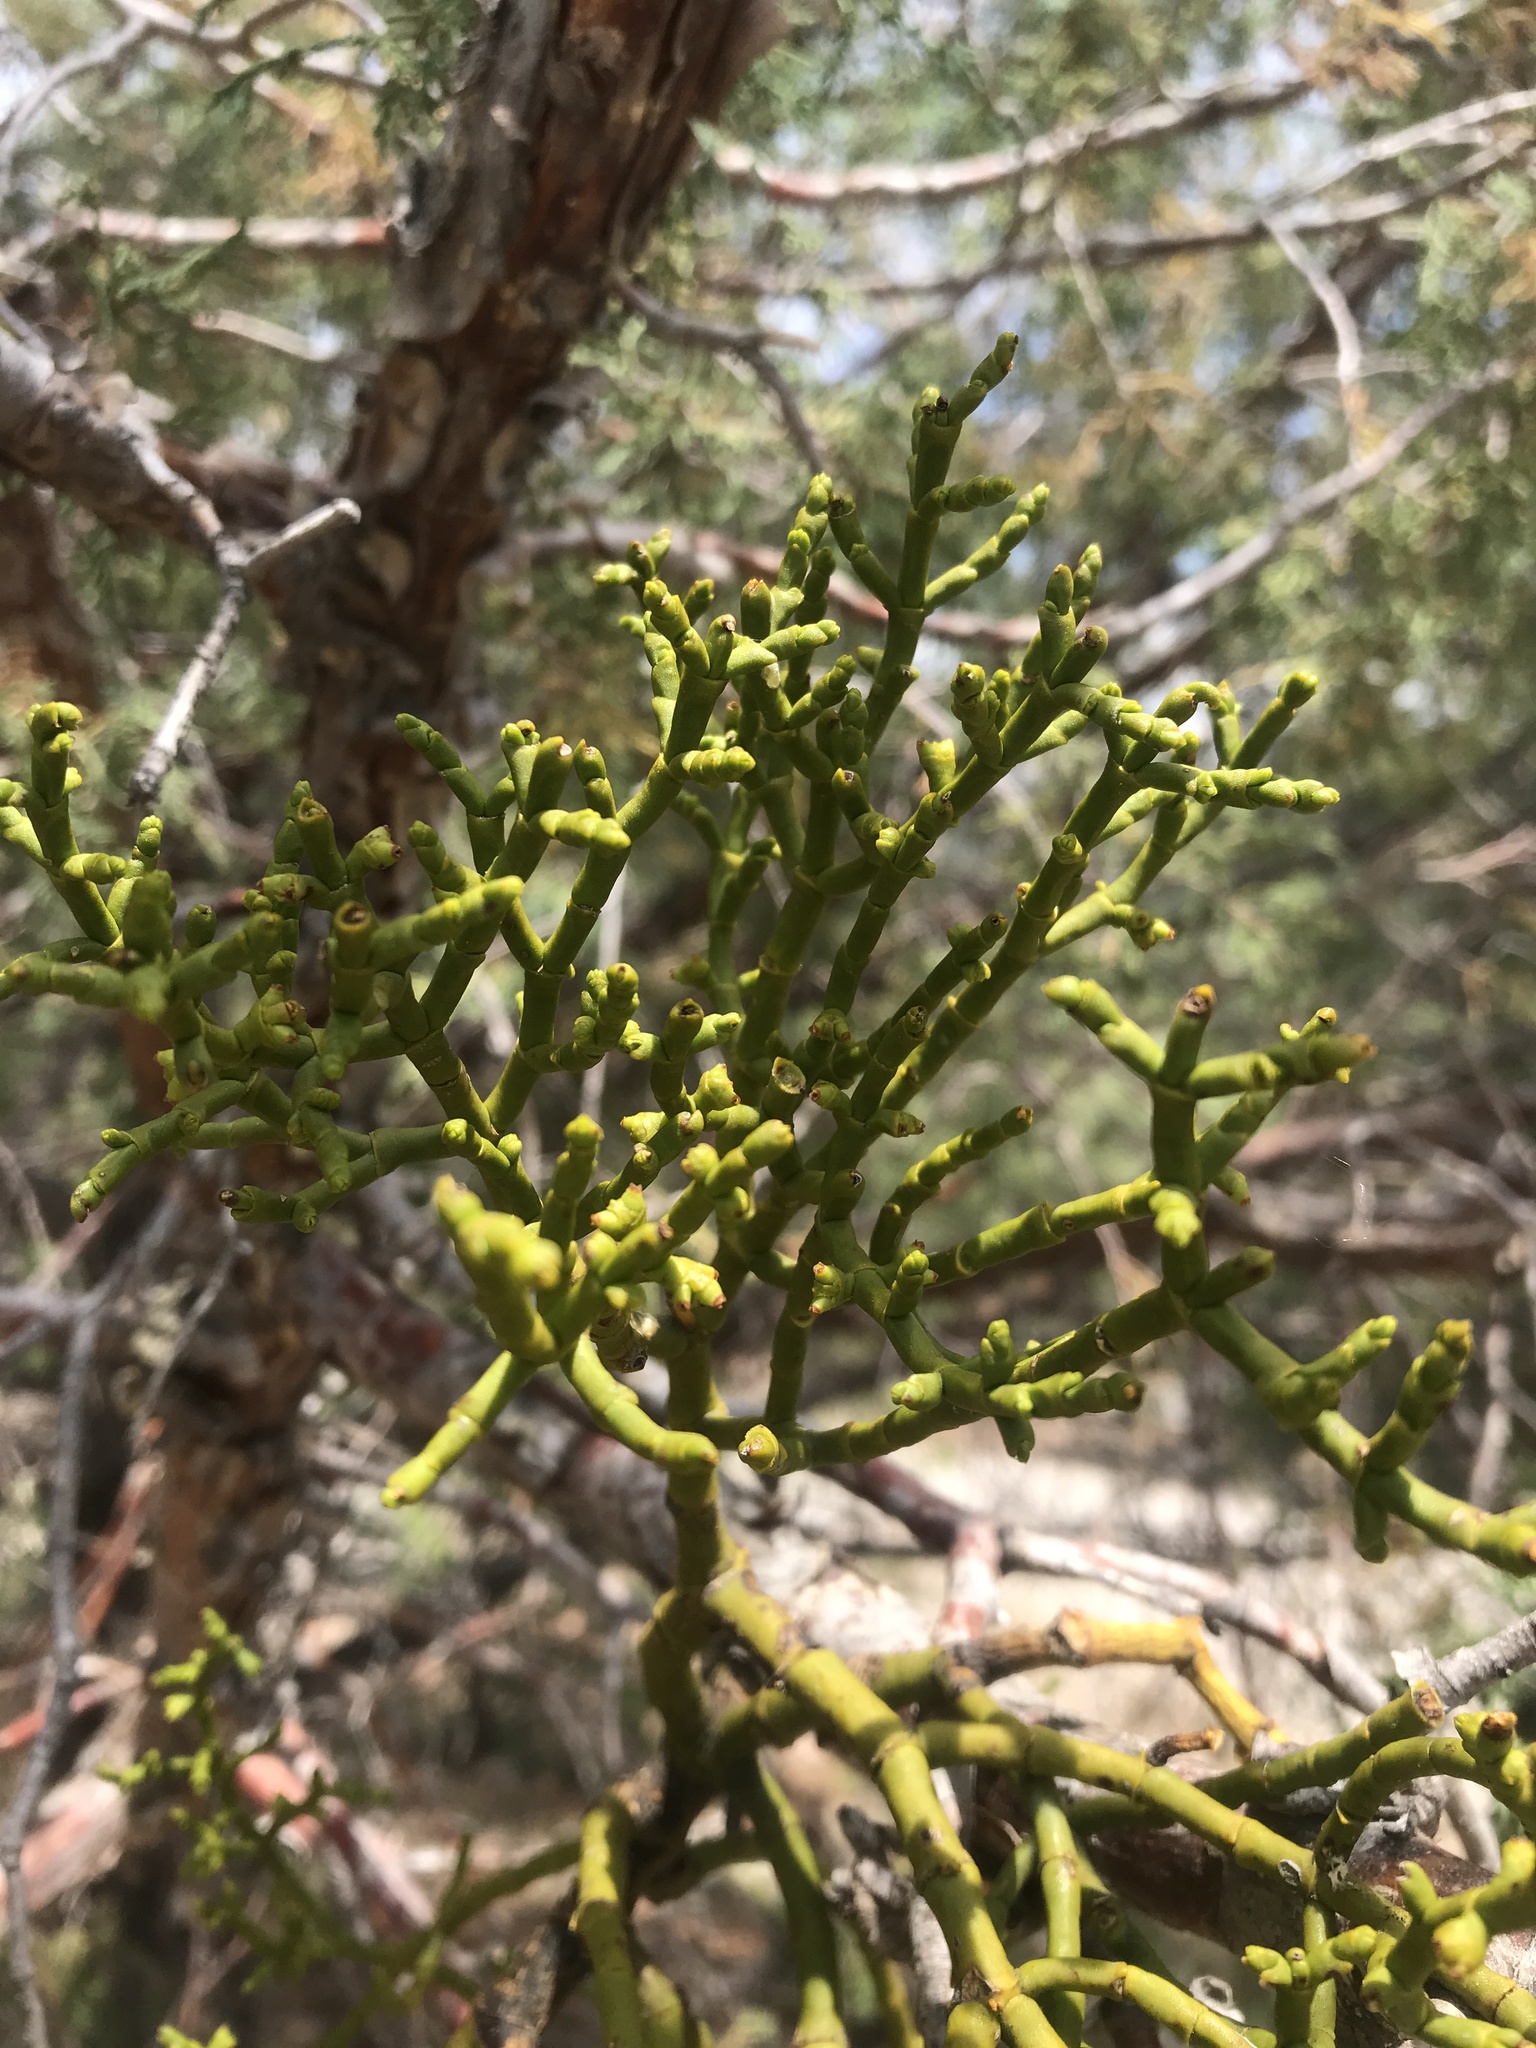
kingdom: Plantae
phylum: Tracheophyta
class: Magnoliopsida
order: Santalales
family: Viscaceae
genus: Phoradendron
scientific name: Phoradendron juniperinum
